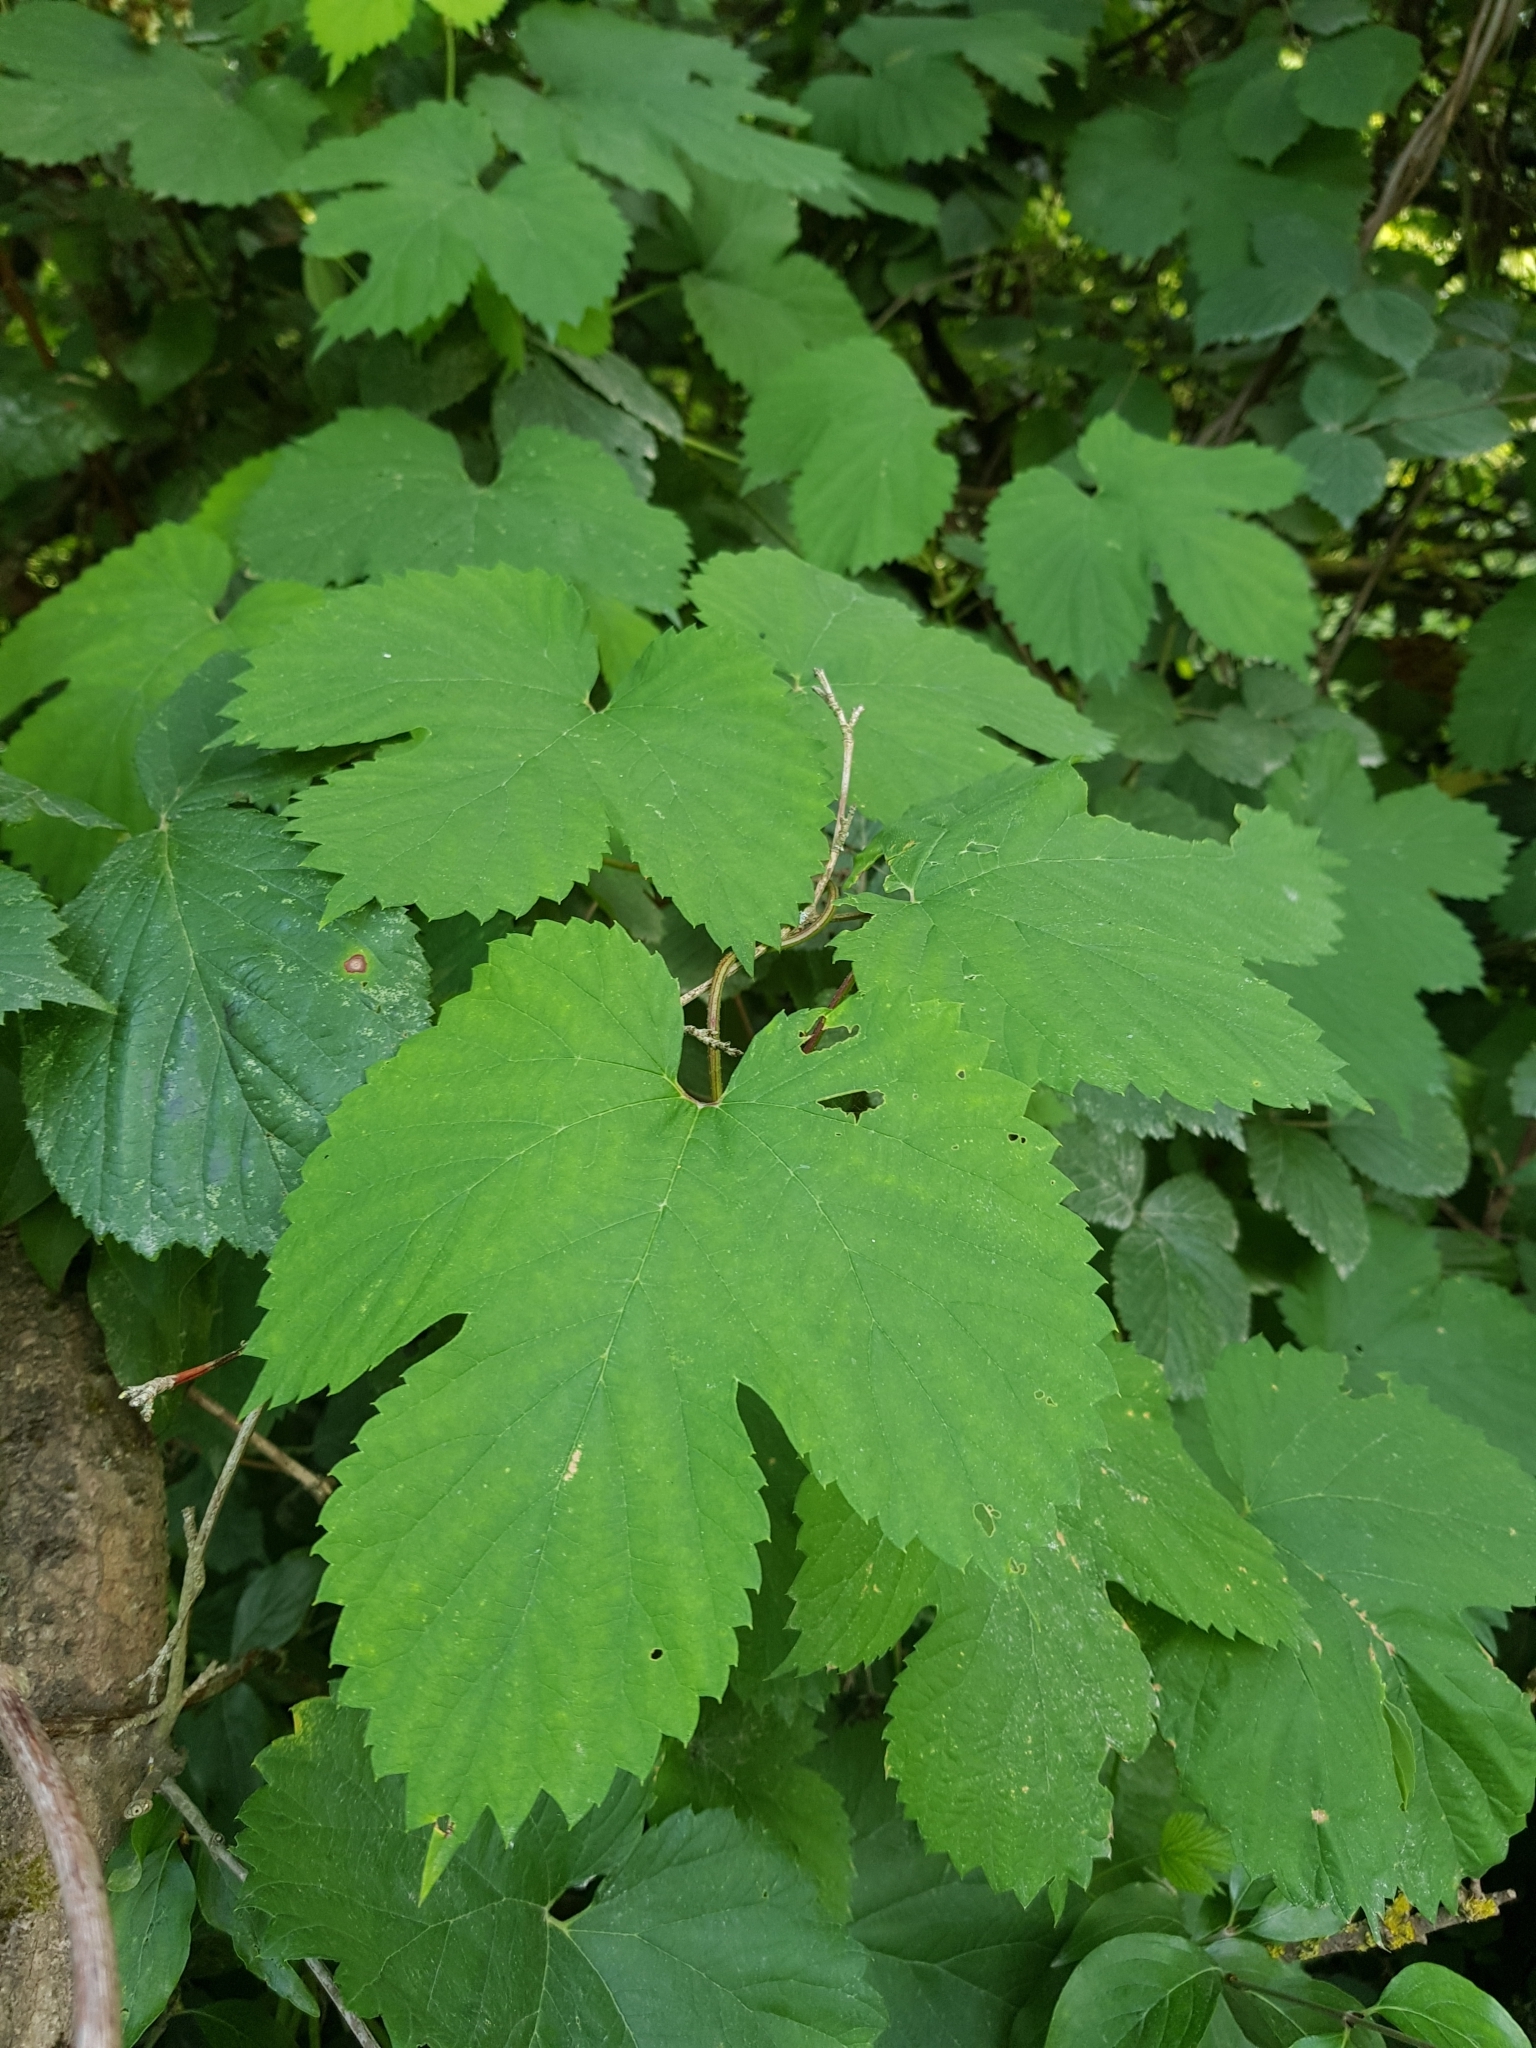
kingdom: Plantae
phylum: Tracheophyta
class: Magnoliopsida
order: Rosales
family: Cannabaceae
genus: Humulus
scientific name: Humulus lupulus
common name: Hop
